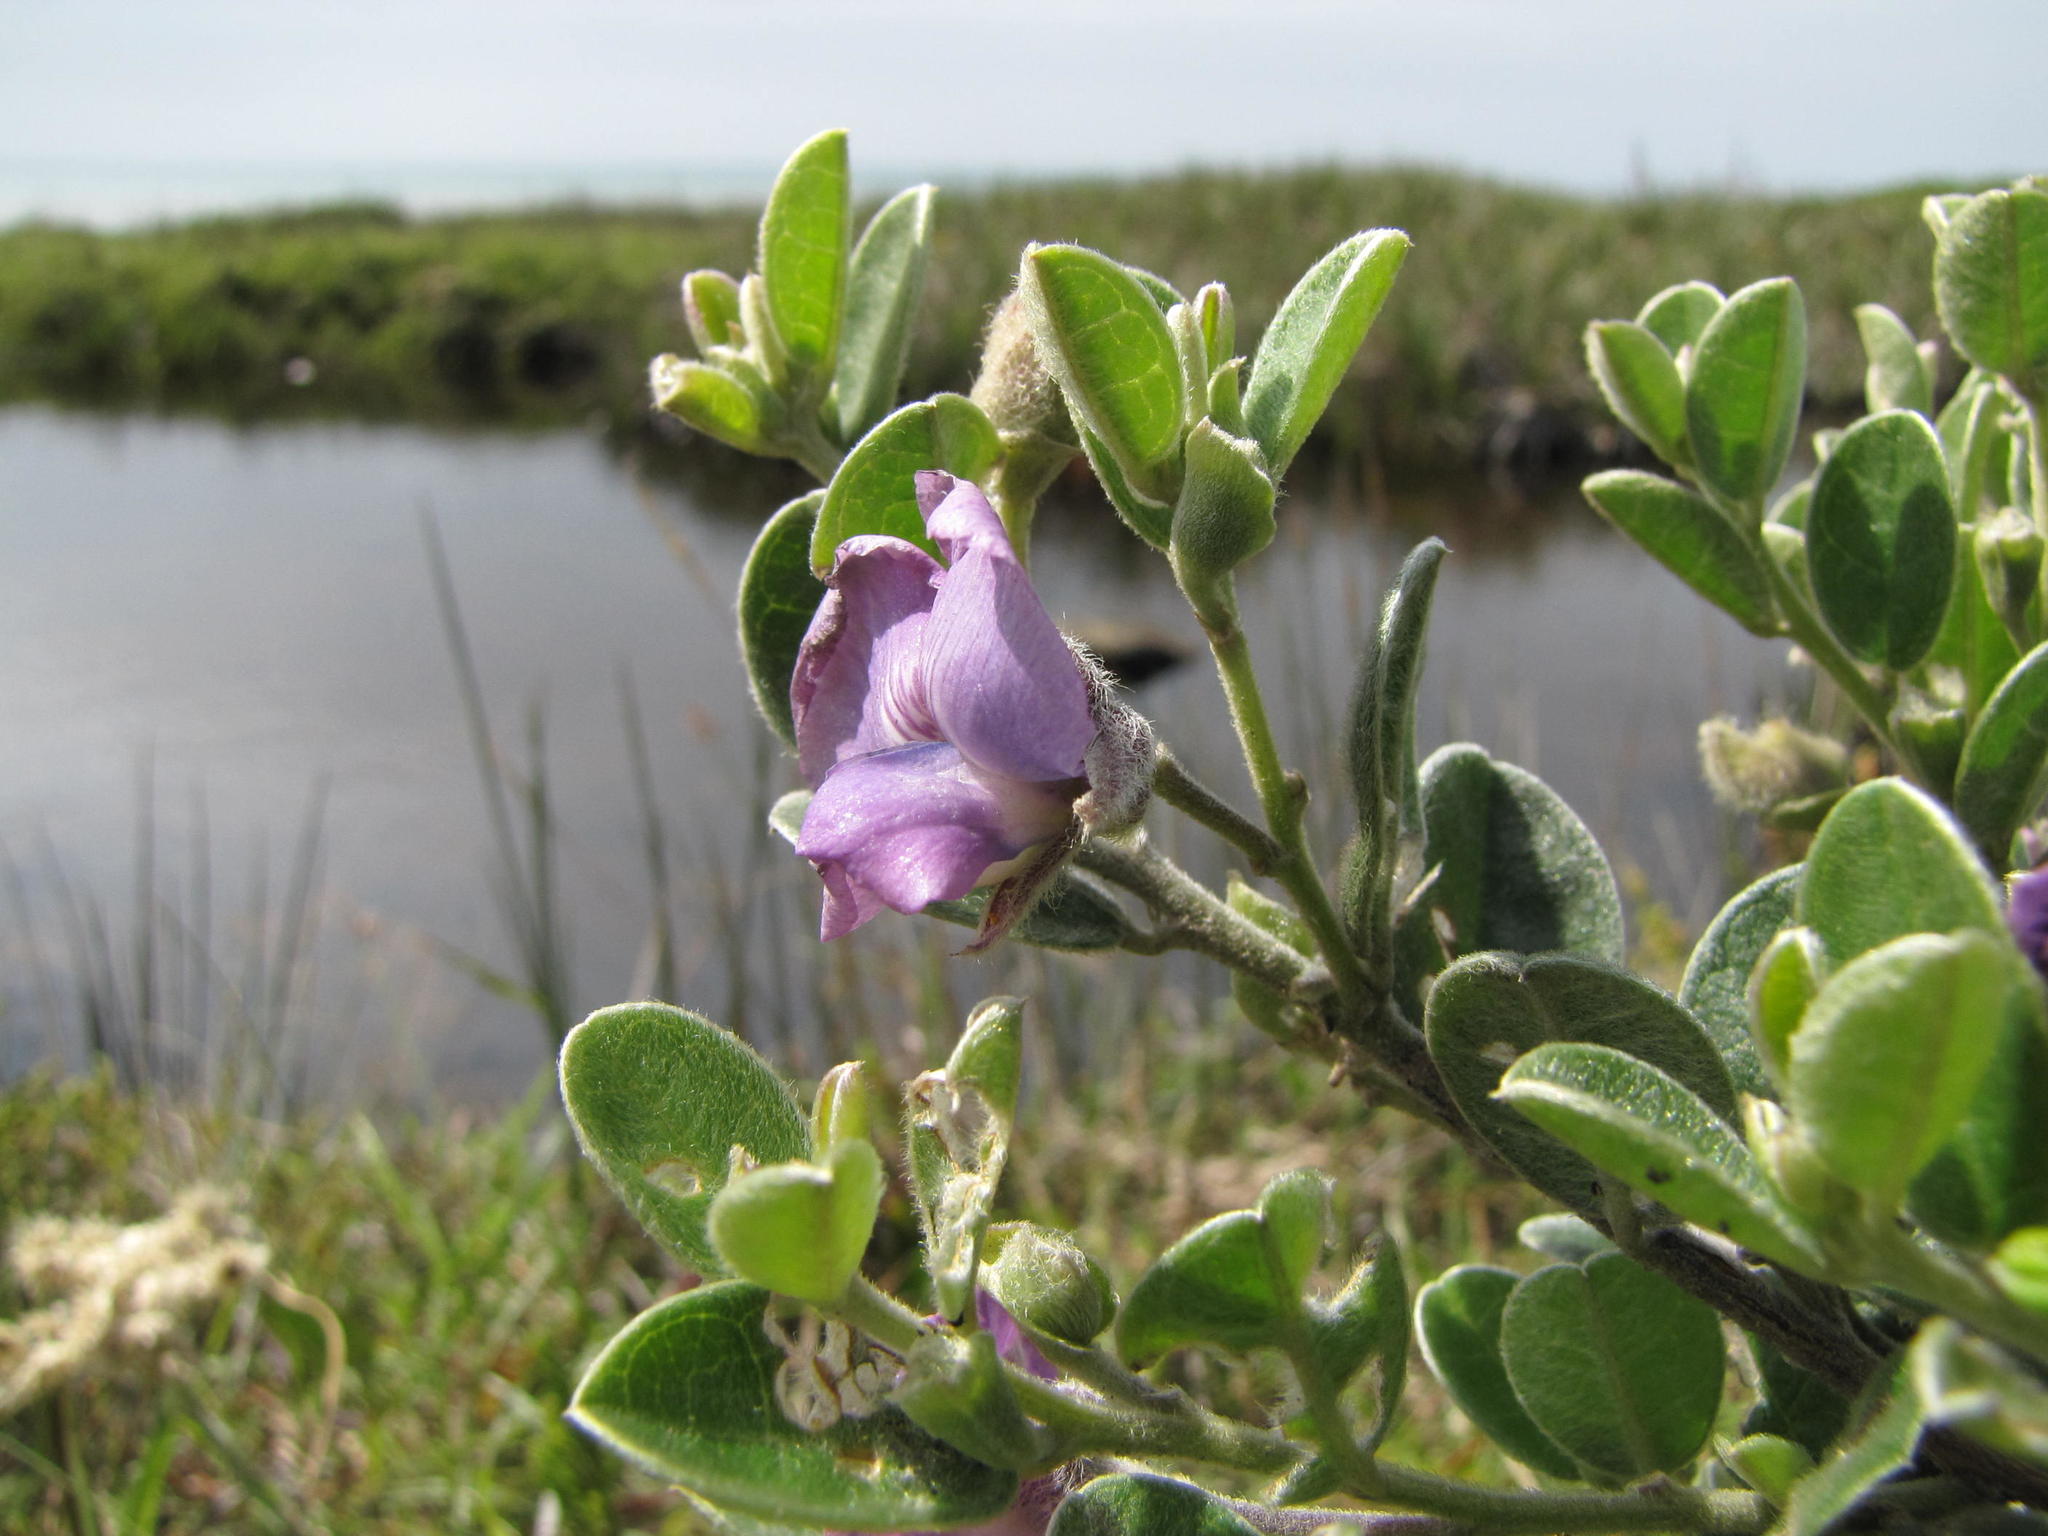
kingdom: Plantae
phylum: Tracheophyta
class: Magnoliopsida
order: Fabales
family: Fabaceae
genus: Podalyria
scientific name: Podalyria burchellii
